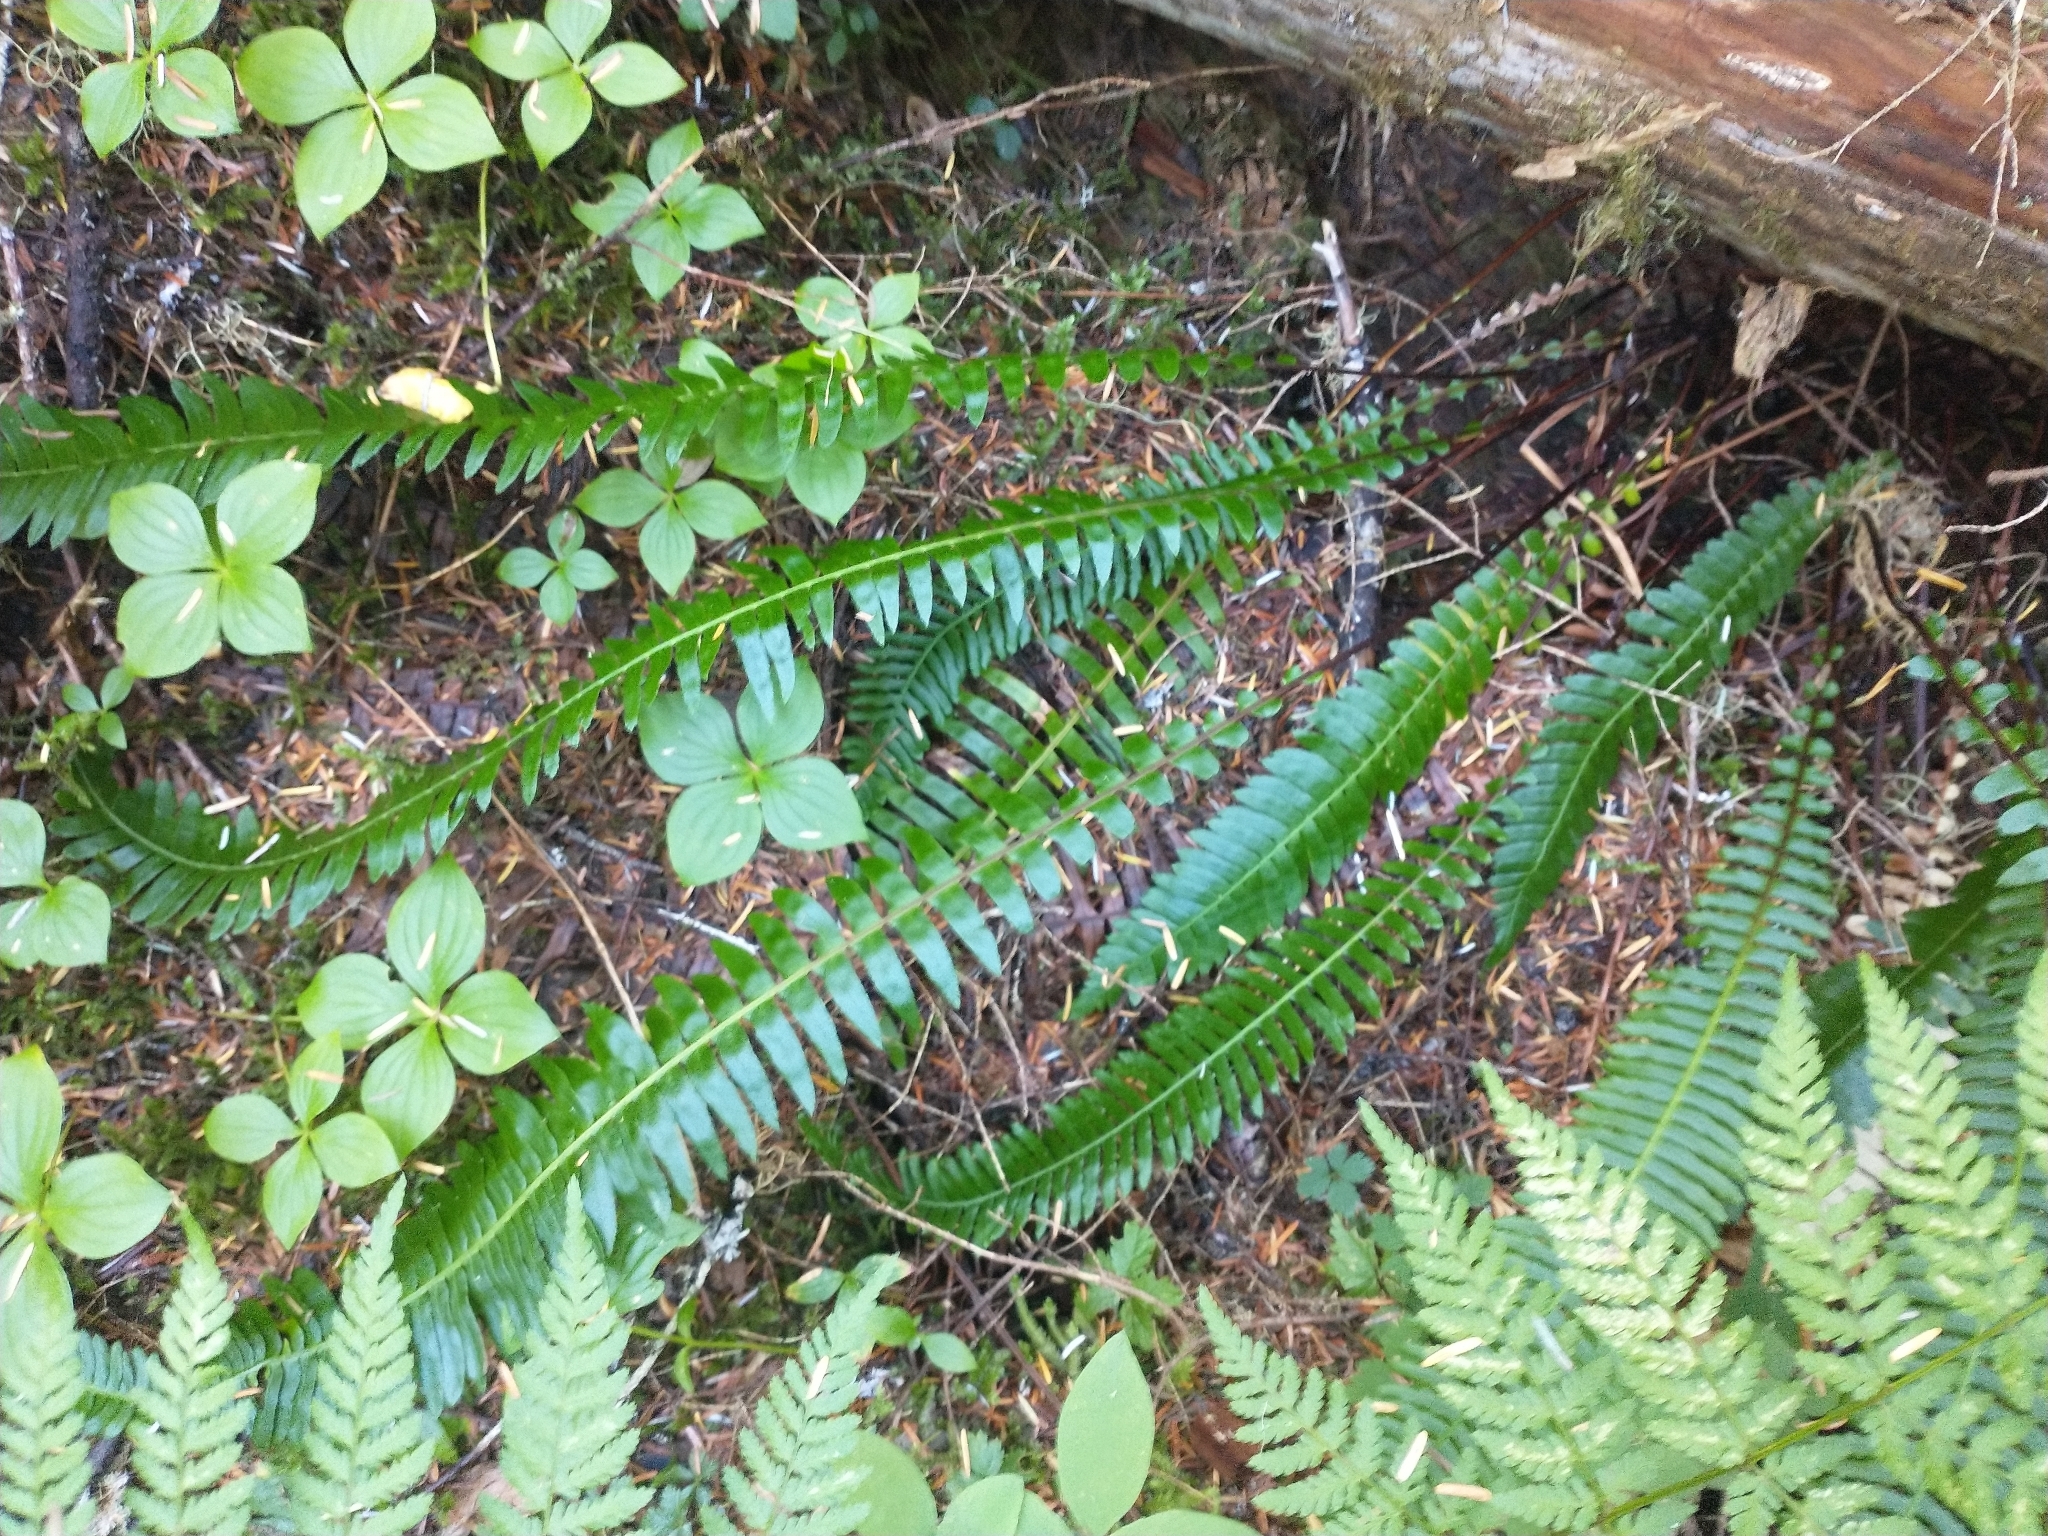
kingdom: Plantae
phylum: Tracheophyta
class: Polypodiopsida
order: Polypodiales
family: Blechnaceae
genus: Struthiopteris
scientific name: Struthiopteris spicant
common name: Deer fern
